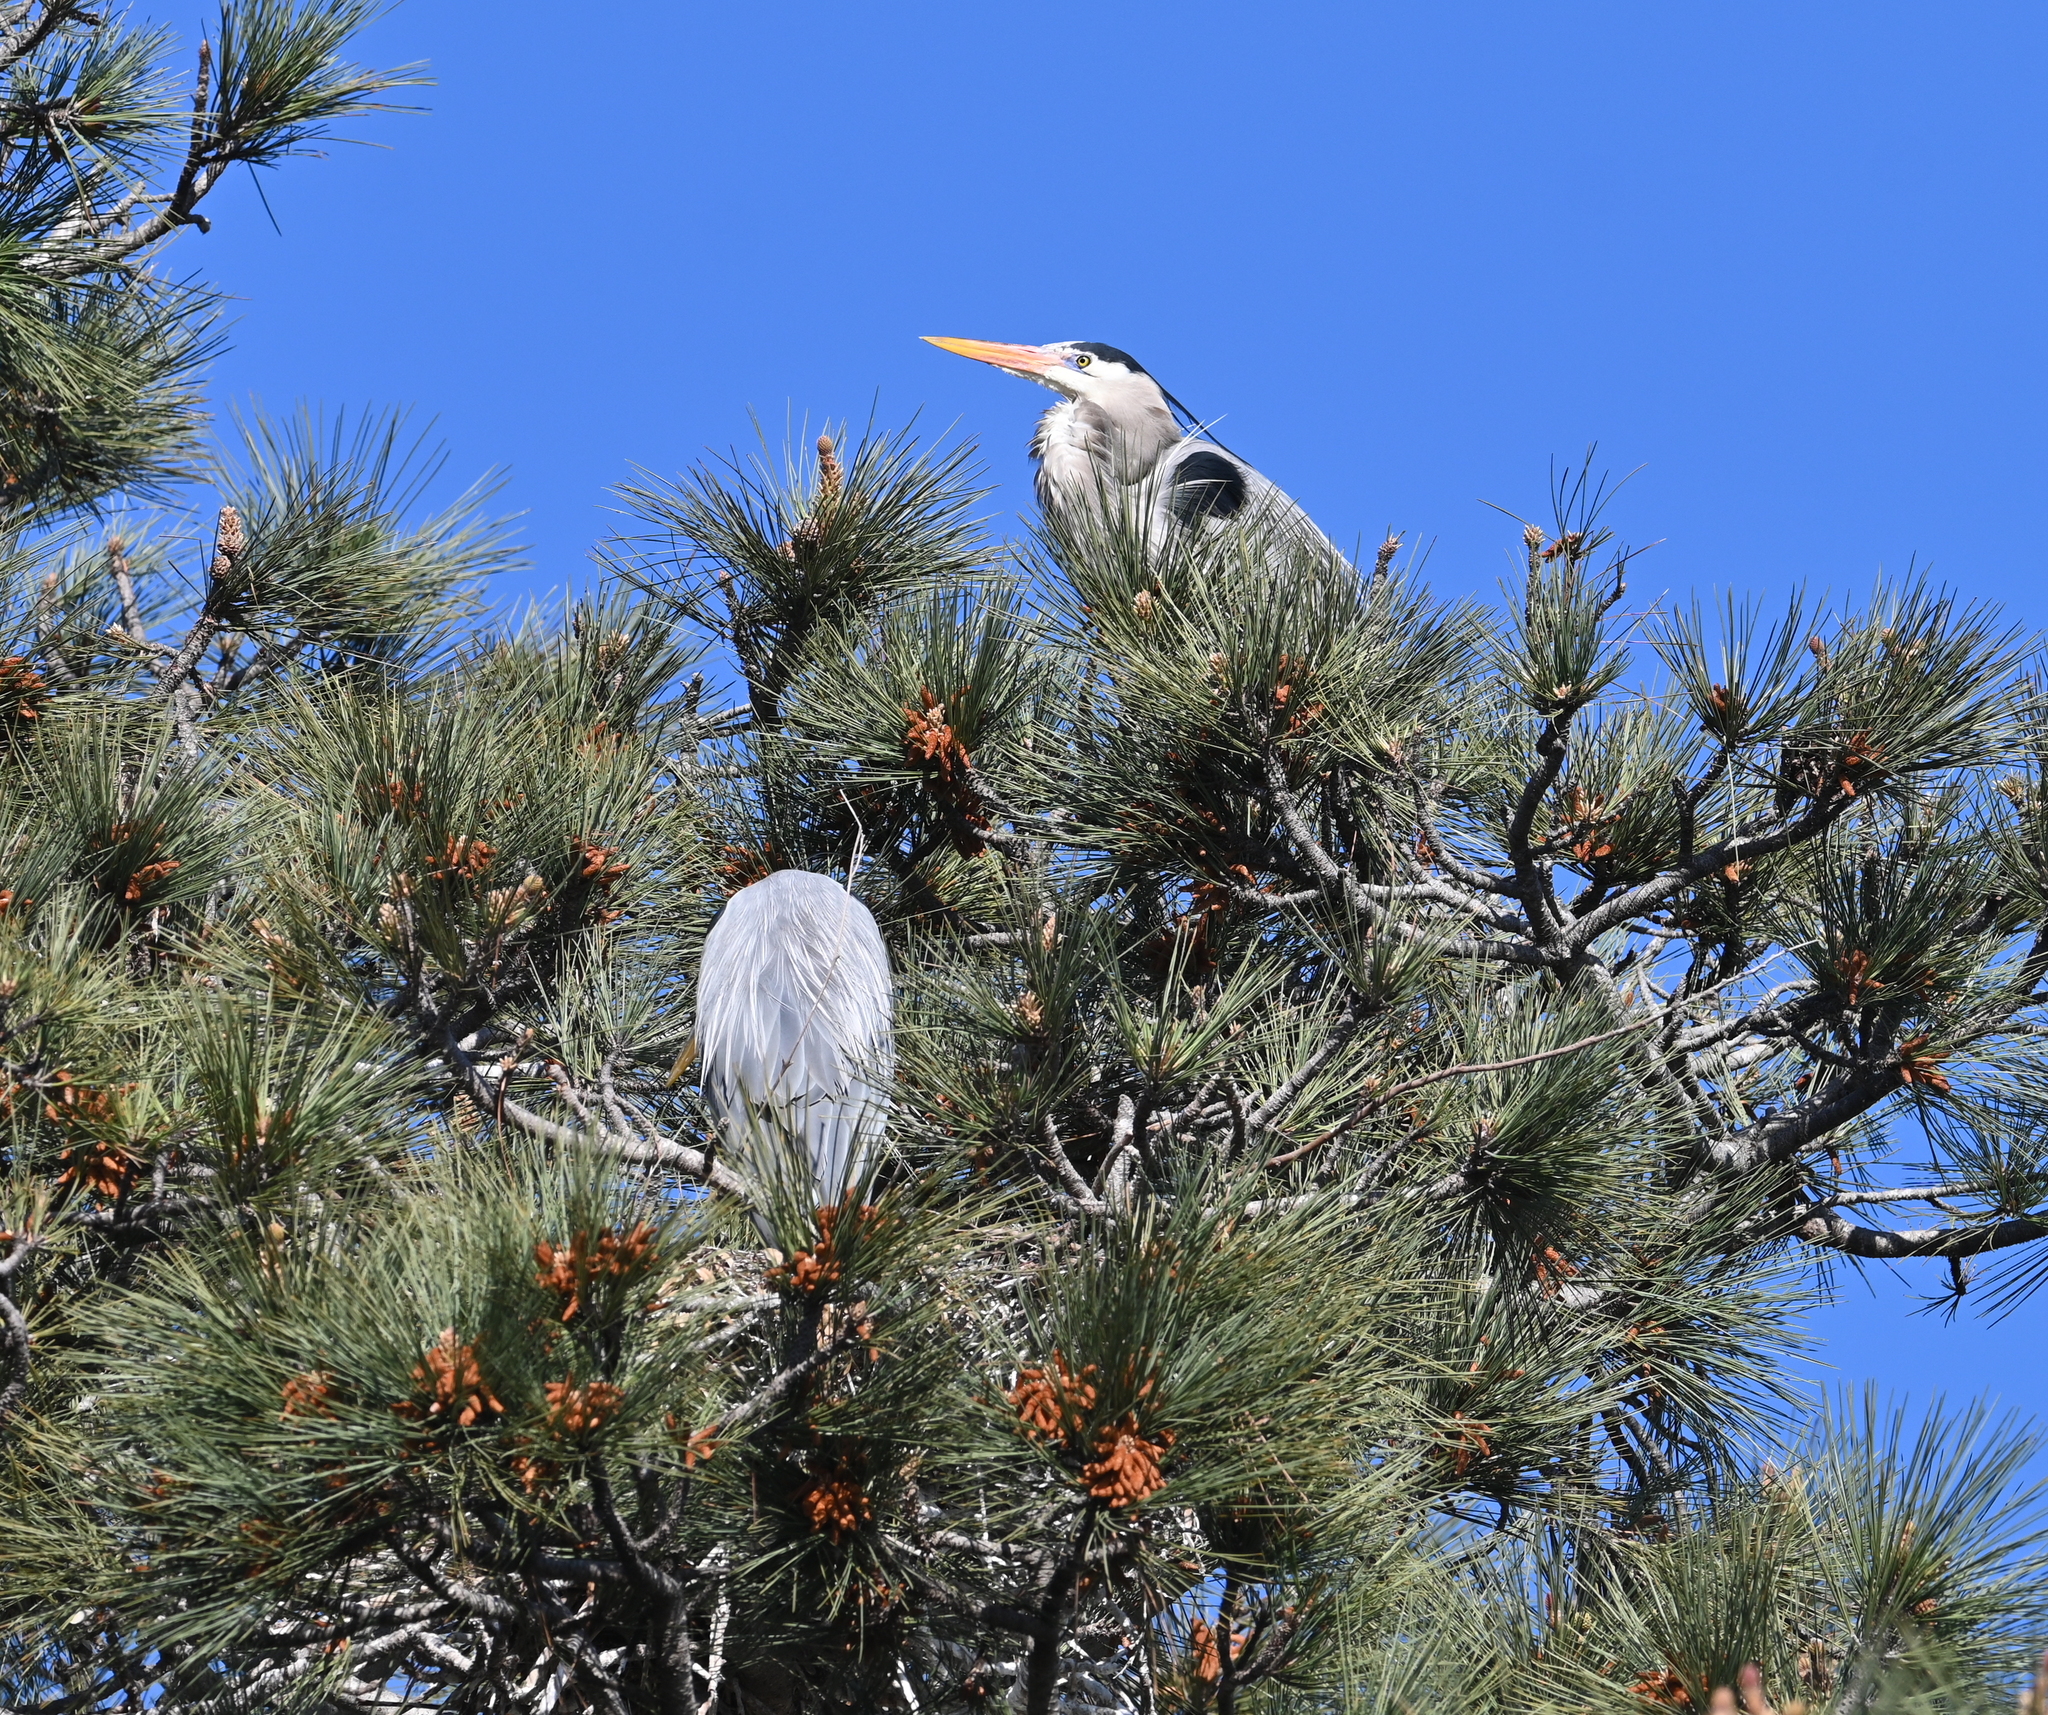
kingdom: Animalia
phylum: Chordata
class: Aves
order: Pelecaniformes
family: Ardeidae
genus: Ardea
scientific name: Ardea herodias
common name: Great blue heron
